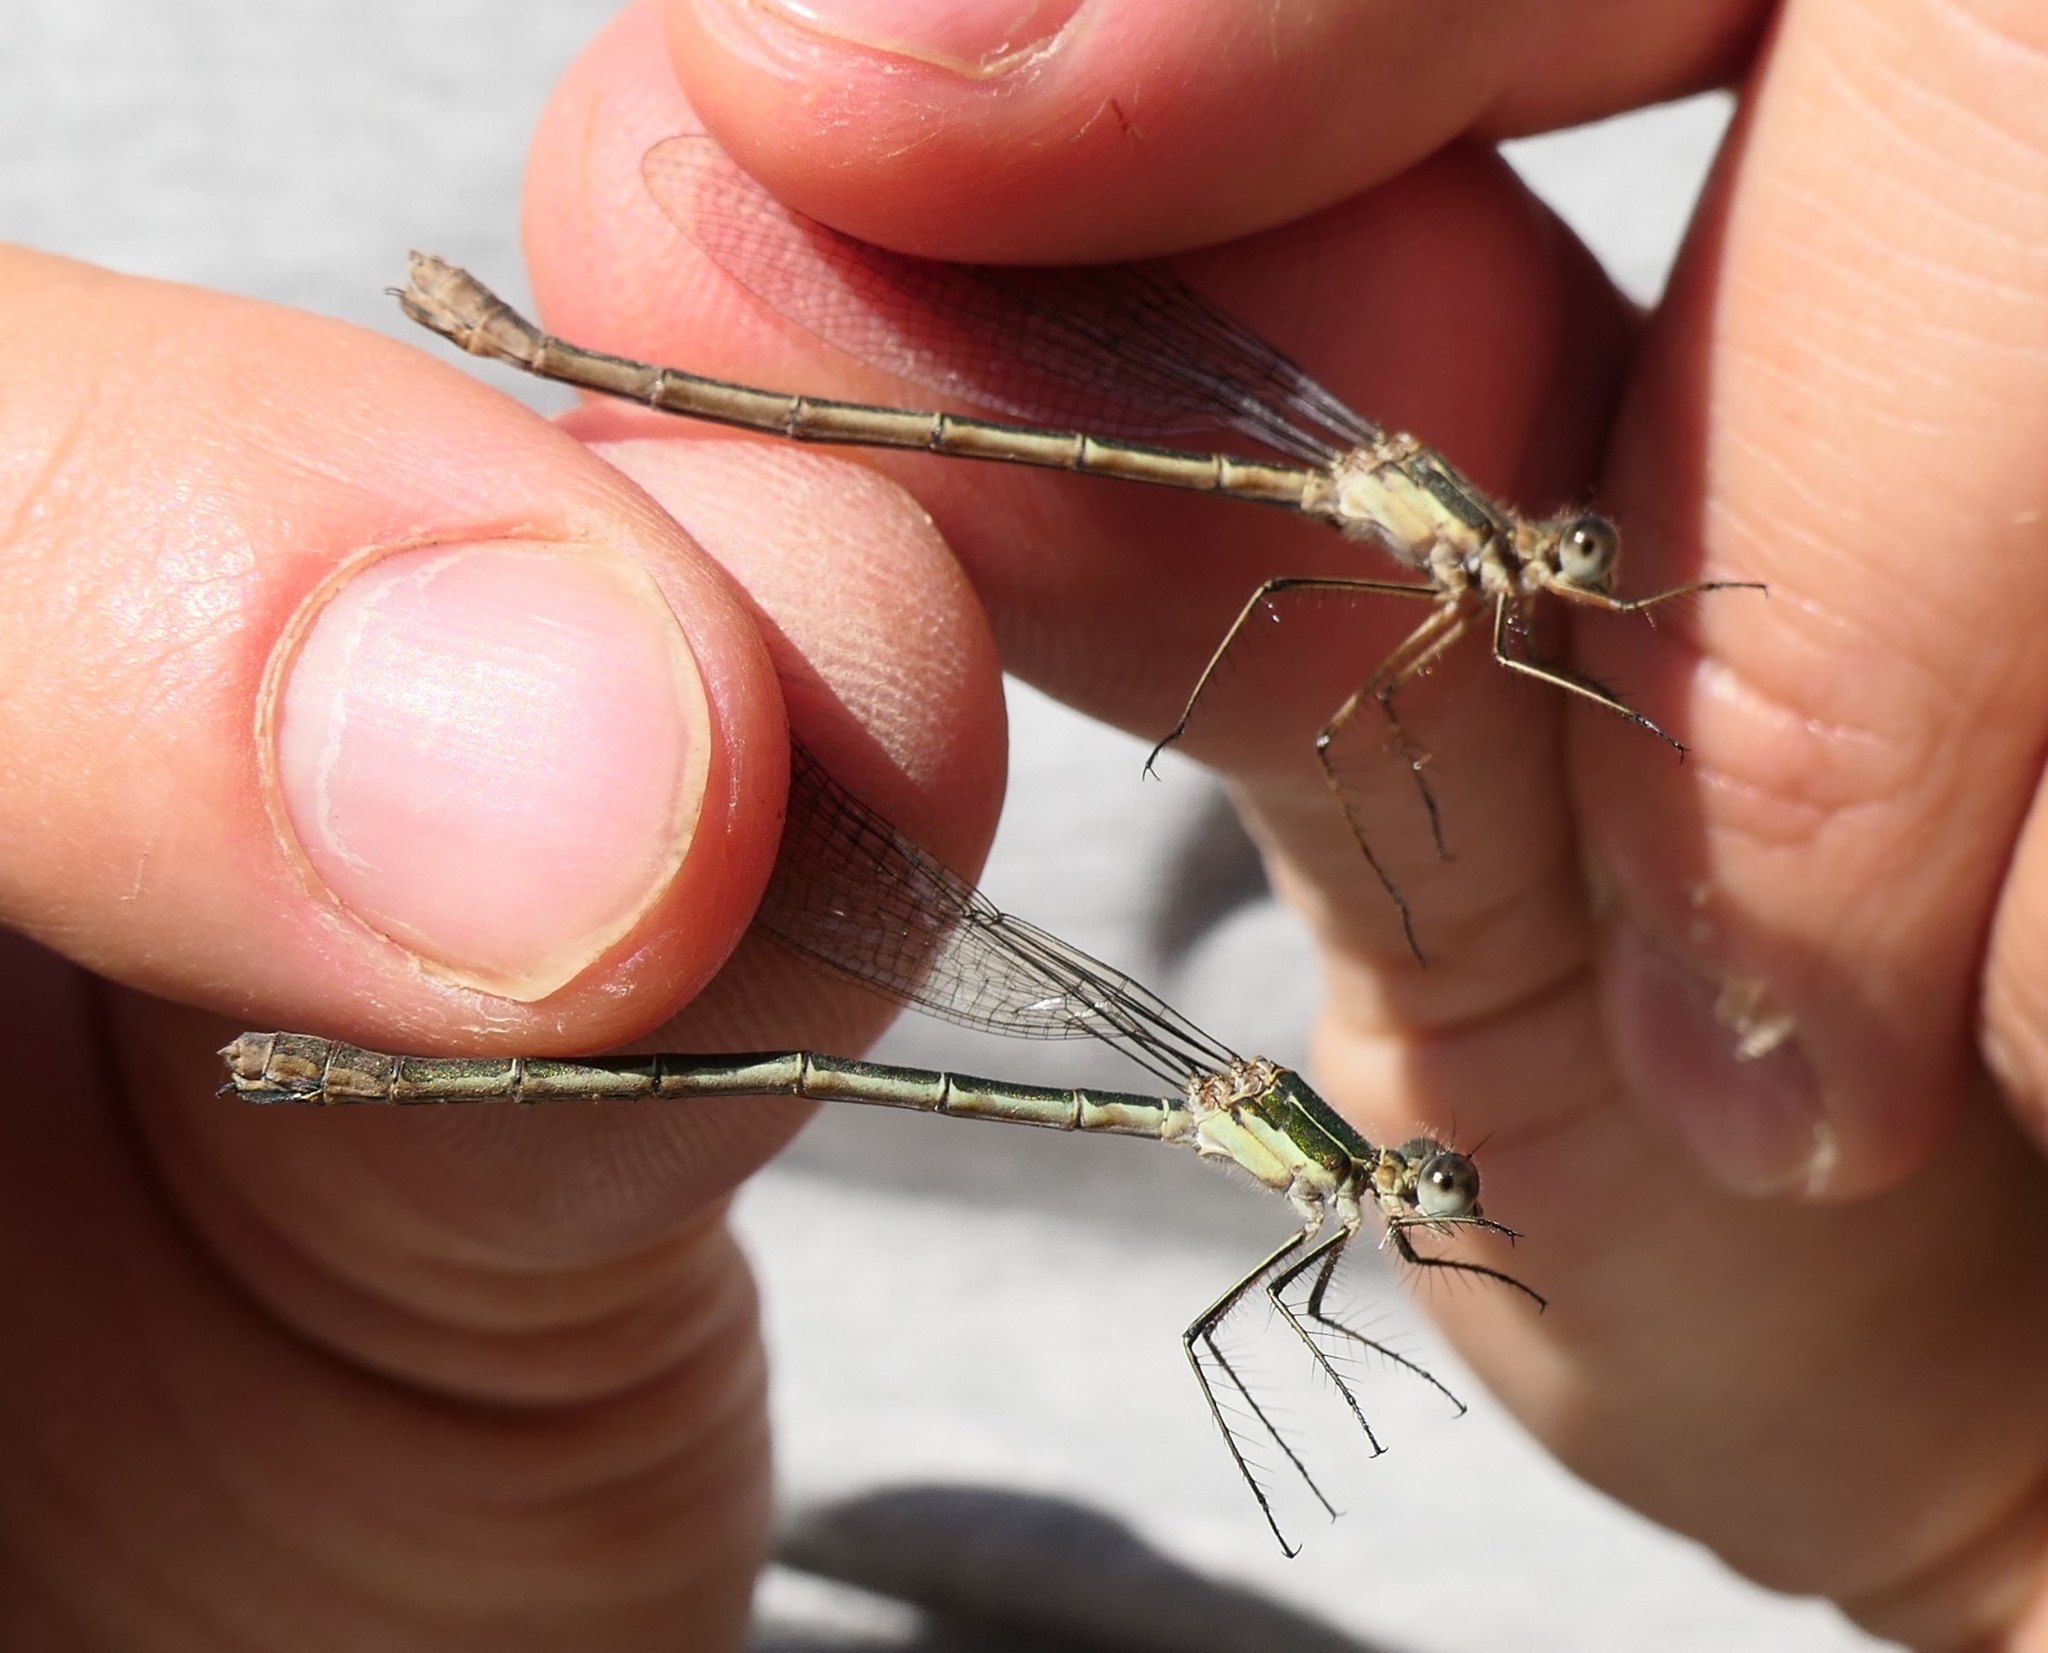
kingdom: Animalia
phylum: Arthropoda
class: Insecta
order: Odonata
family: Lestidae
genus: Lestes
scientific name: Lestes sponsa
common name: Common spreadwing
